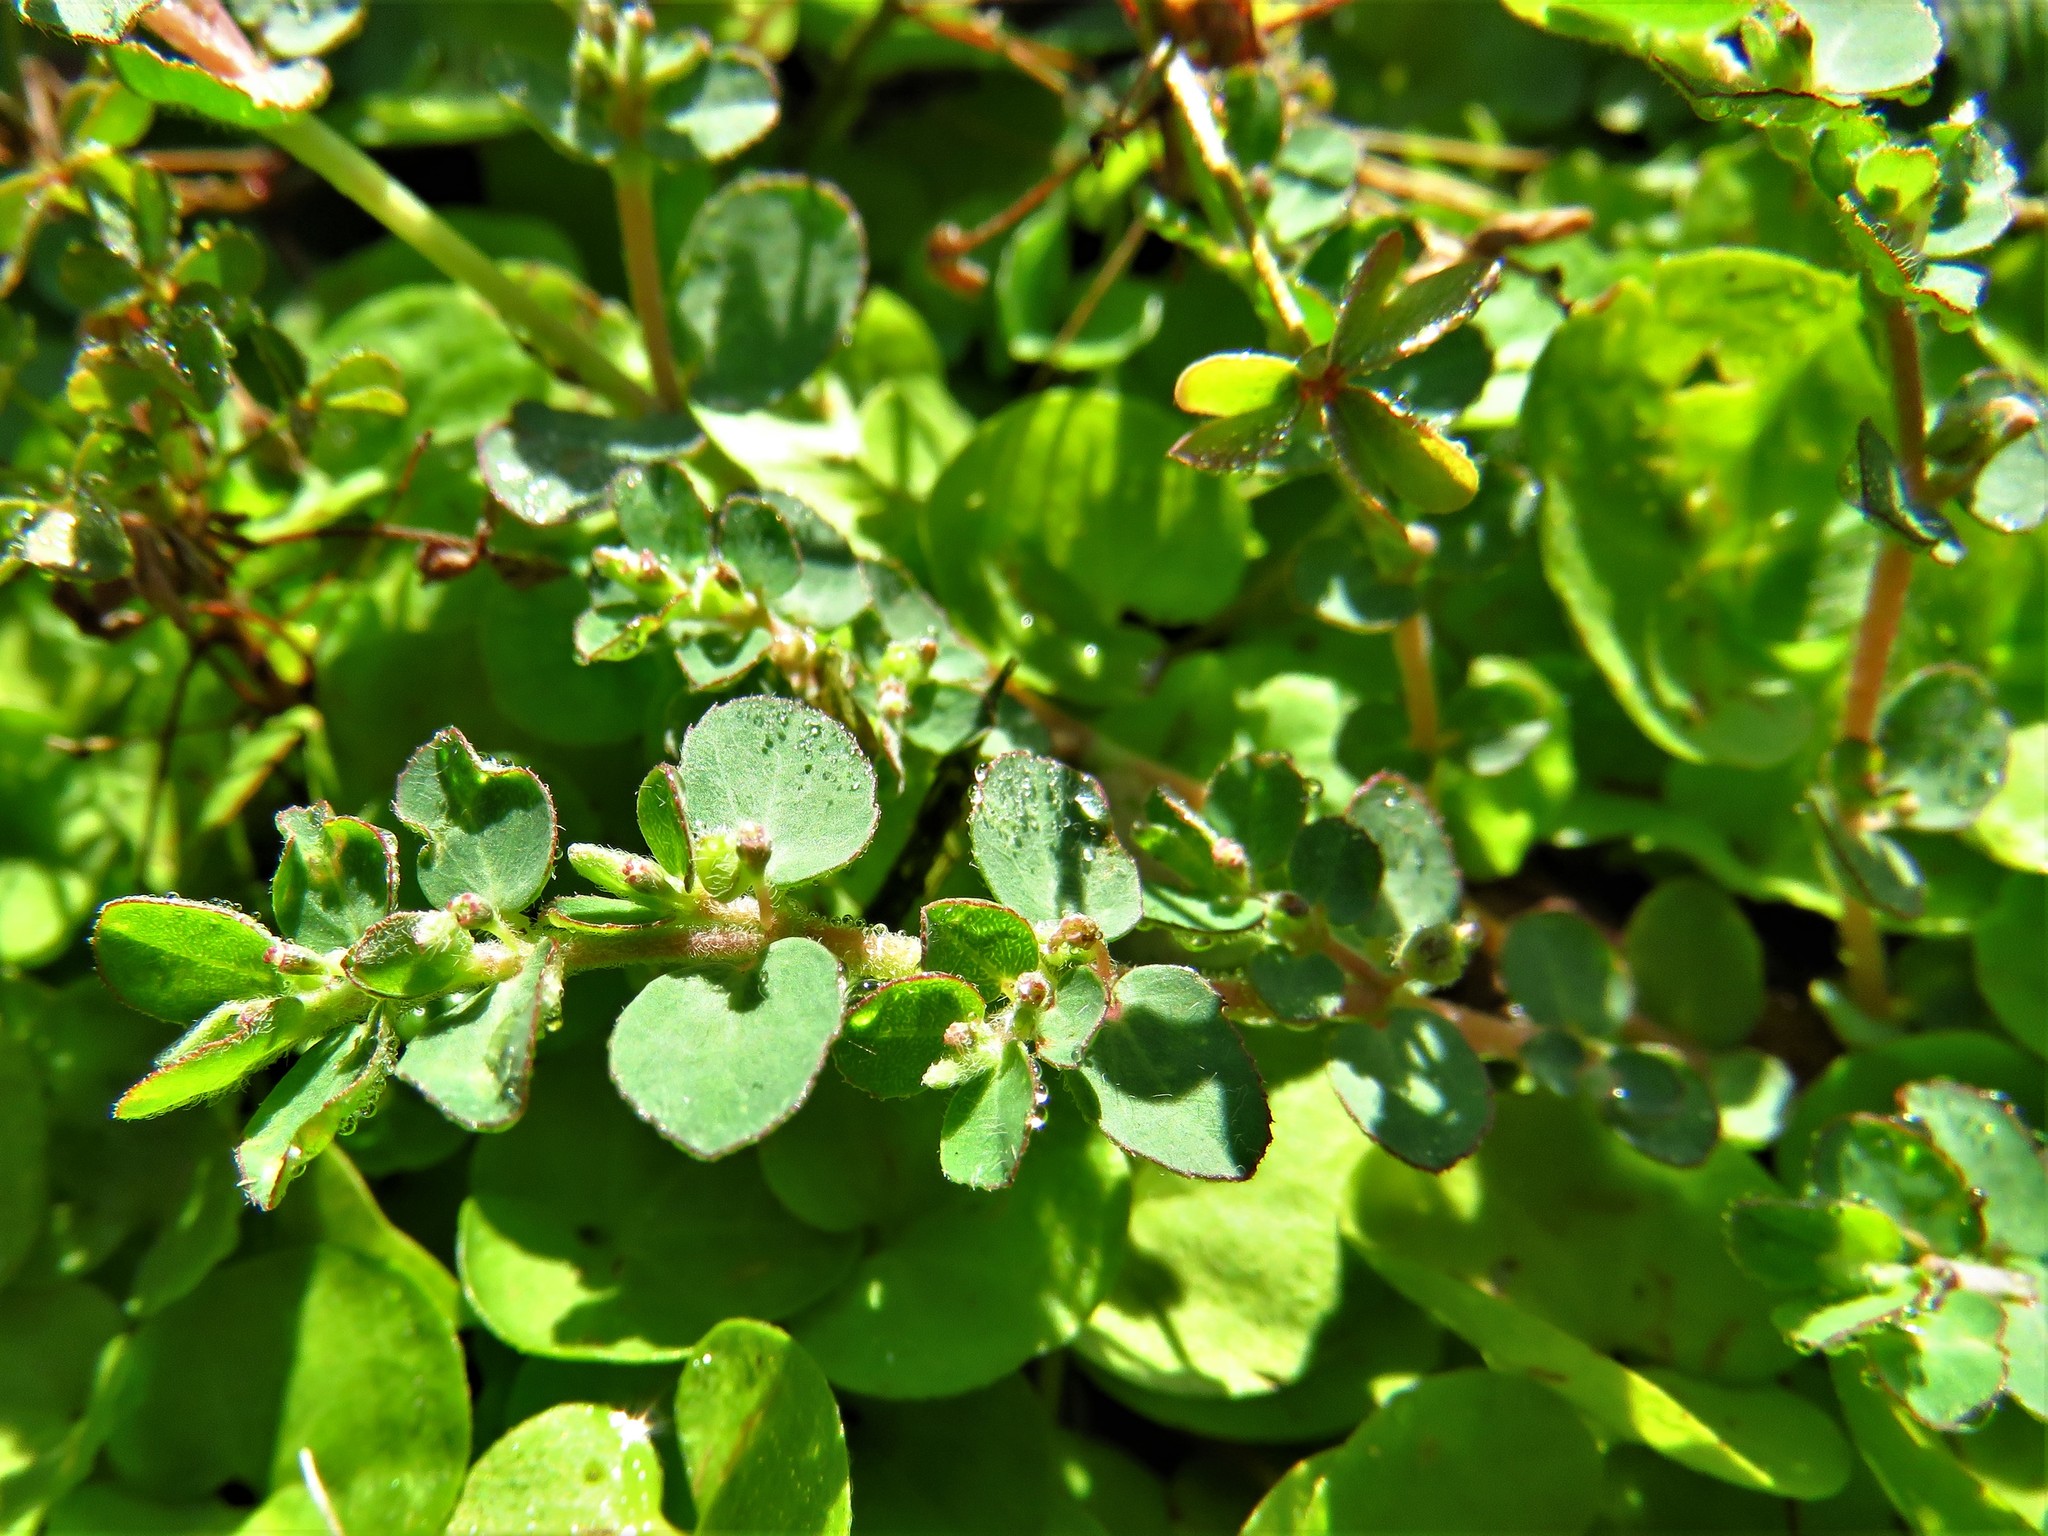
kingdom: Plantae
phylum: Tracheophyta
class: Magnoliopsida
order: Malpighiales
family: Euphorbiaceae
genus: Euphorbia
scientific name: Euphorbia prostrata
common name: Prostrate sandmat
